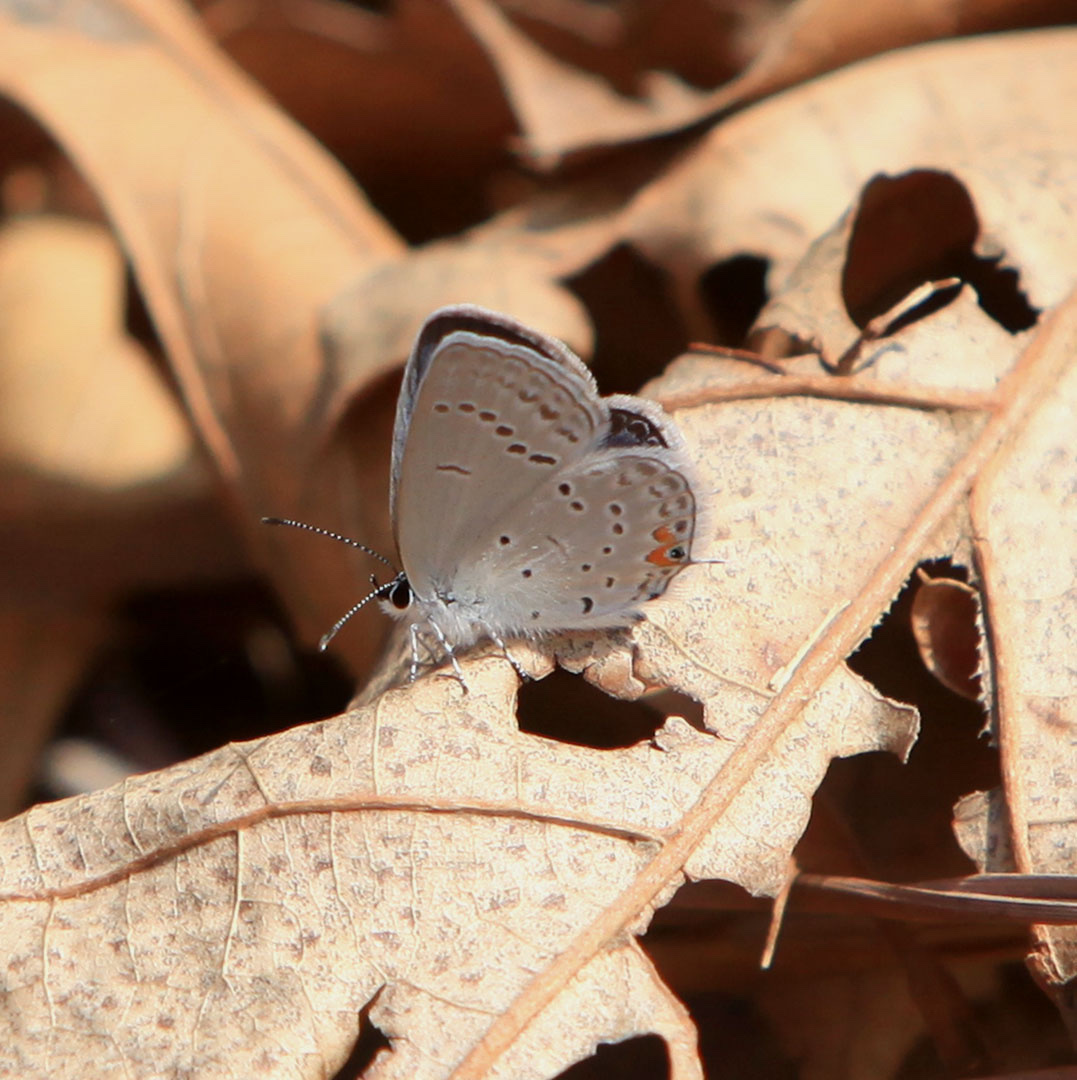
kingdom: Animalia
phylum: Arthropoda
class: Insecta
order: Lepidoptera
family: Lycaenidae
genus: Elkalyce
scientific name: Elkalyce comyntas
